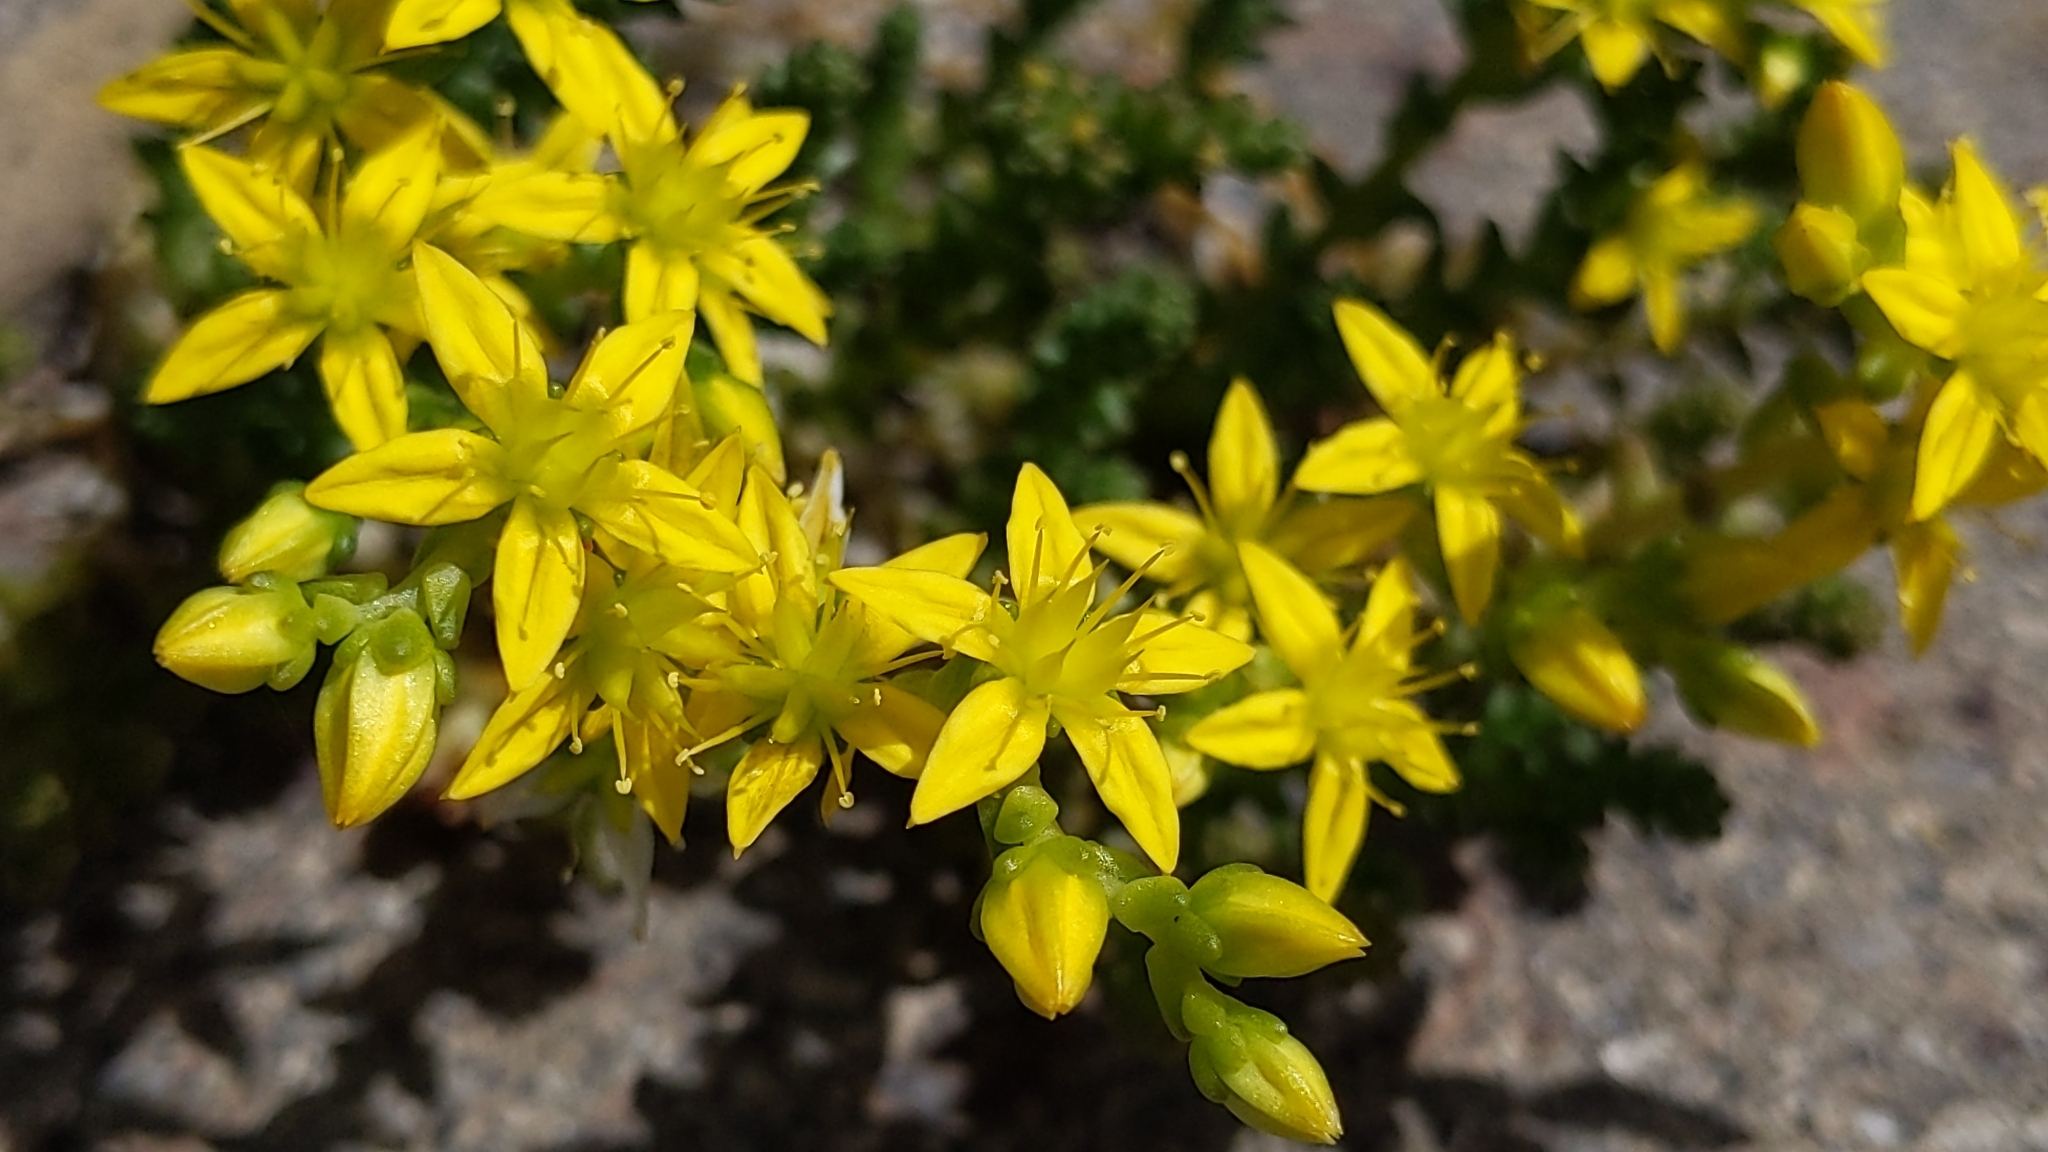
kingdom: Plantae
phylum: Tracheophyta
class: Magnoliopsida
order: Saxifragales
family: Crassulaceae
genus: Sedum
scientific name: Sedum acre
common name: Biting stonecrop
